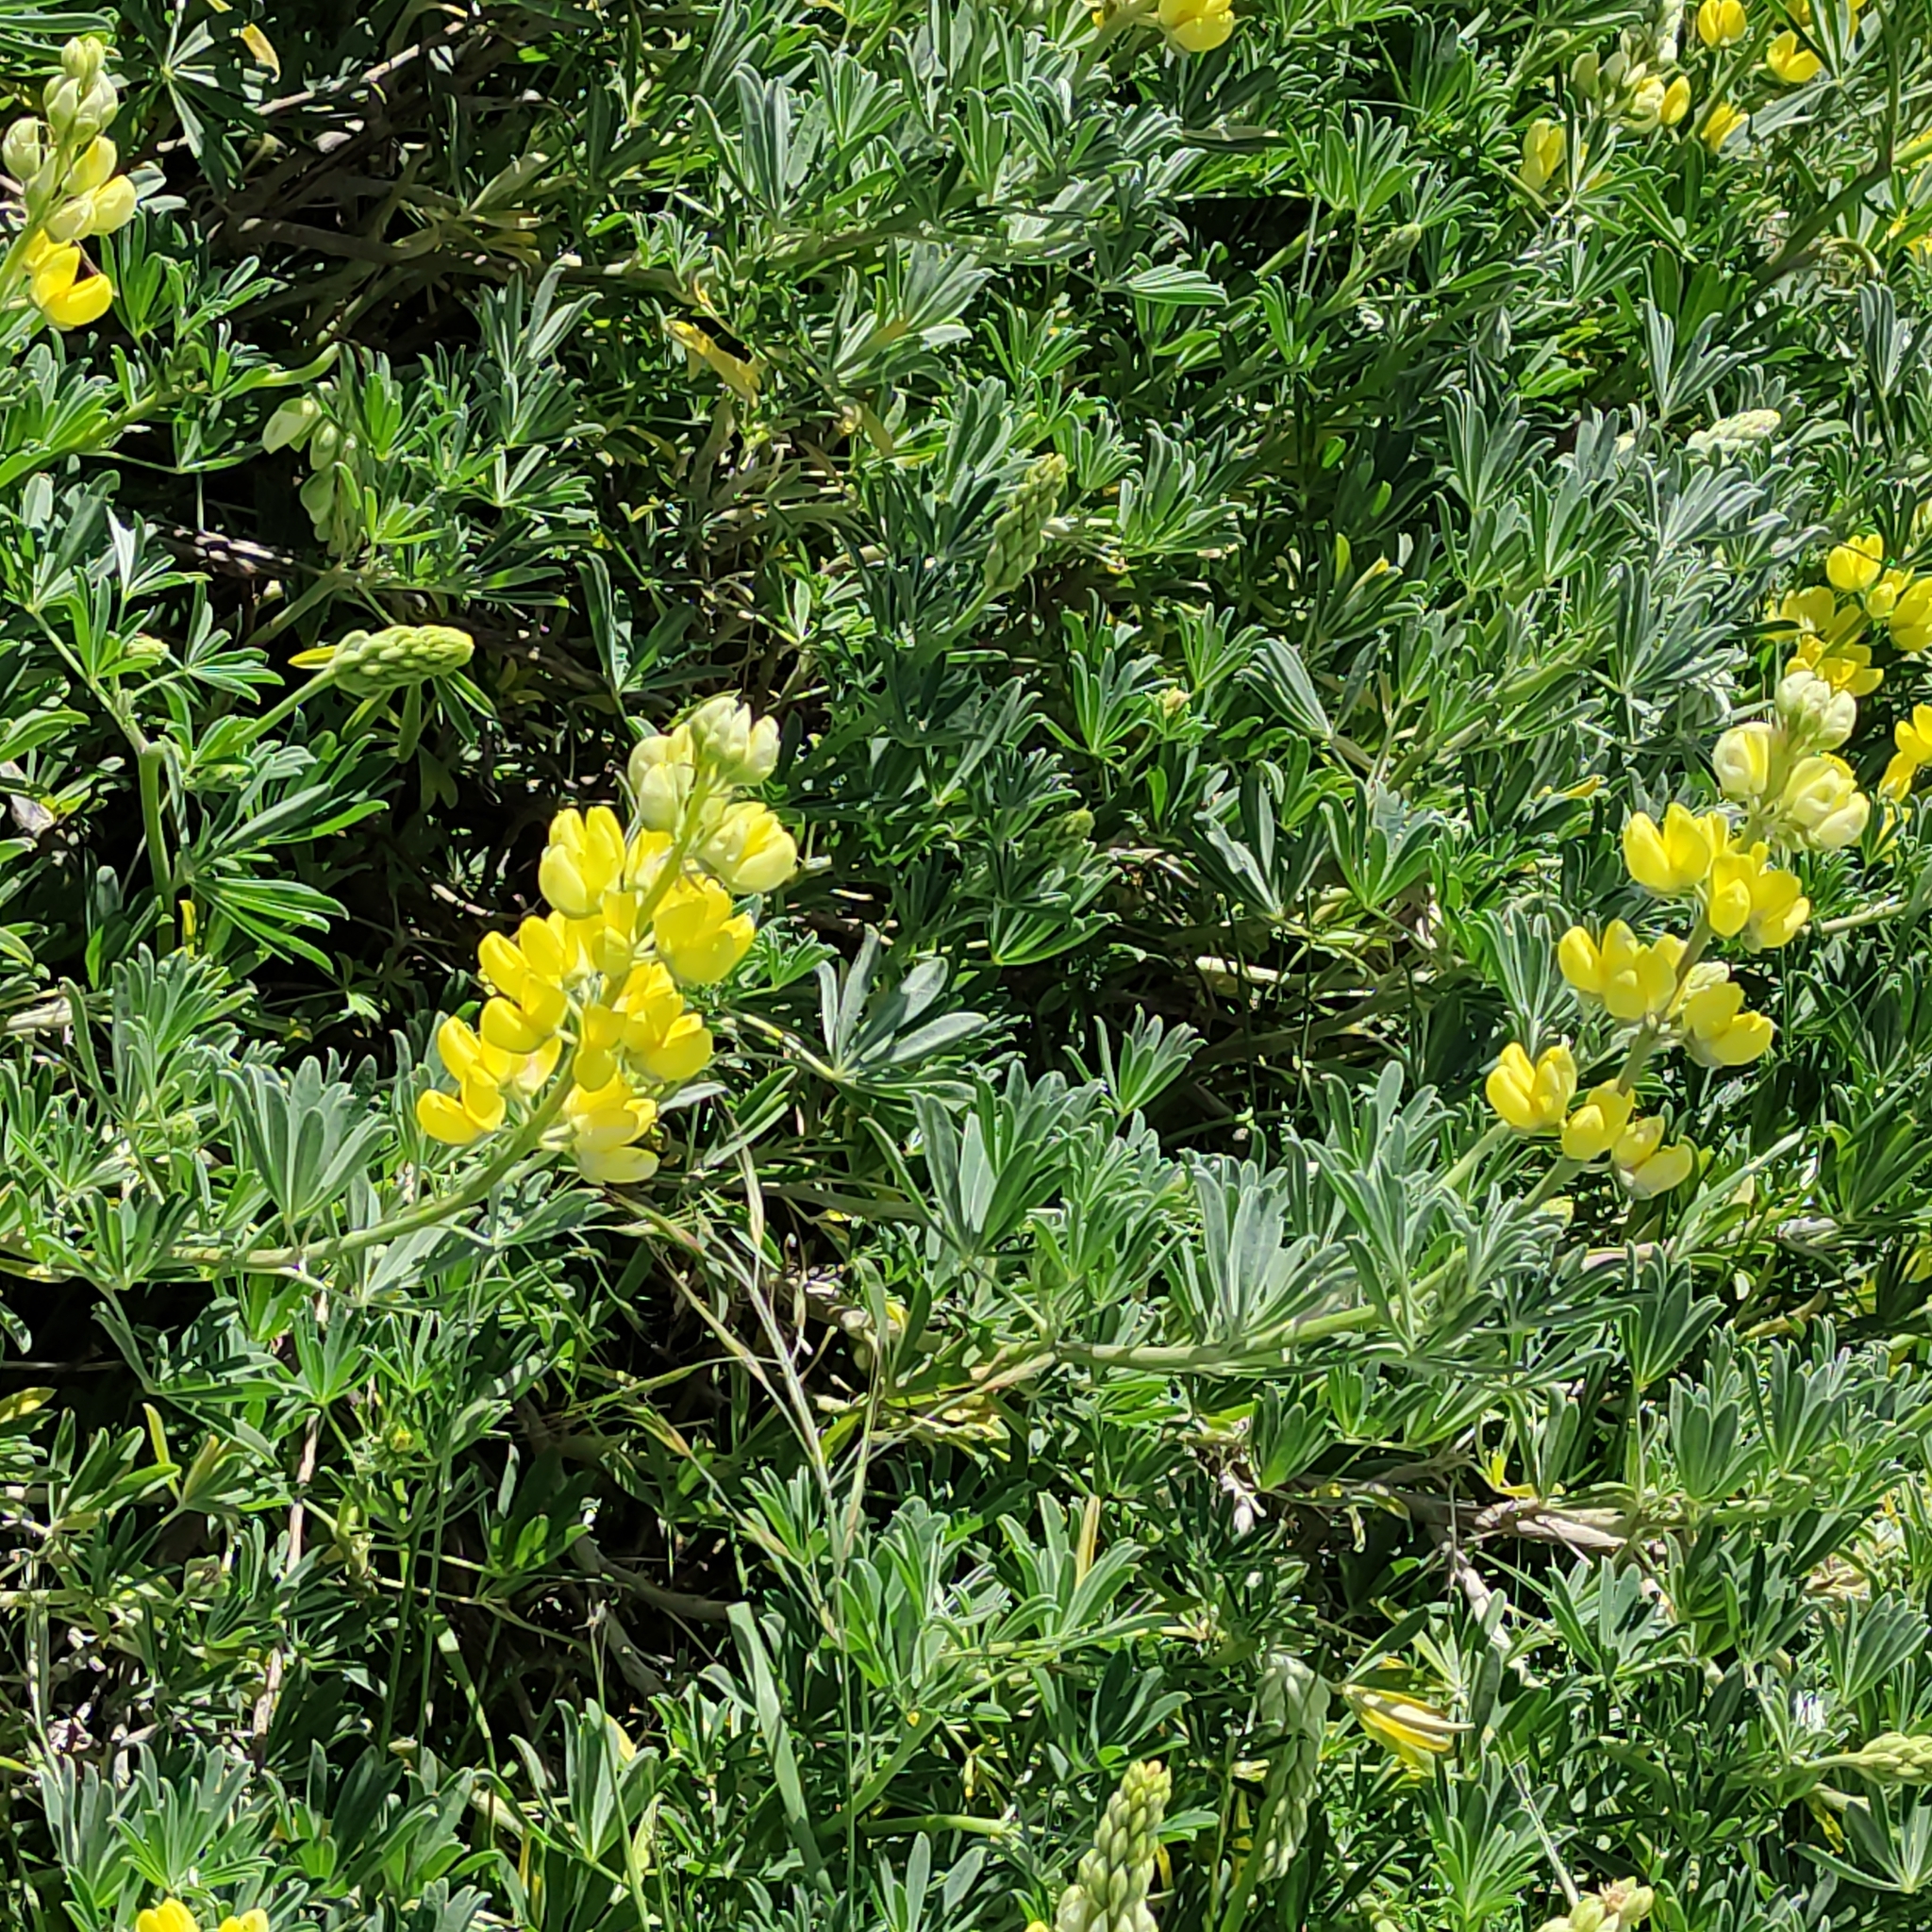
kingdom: Plantae
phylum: Tracheophyta
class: Magnoliopsida
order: Fabales
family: Fabaceae
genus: Lupinus
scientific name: Lupinus arboreus
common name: Yellow bush lupine
